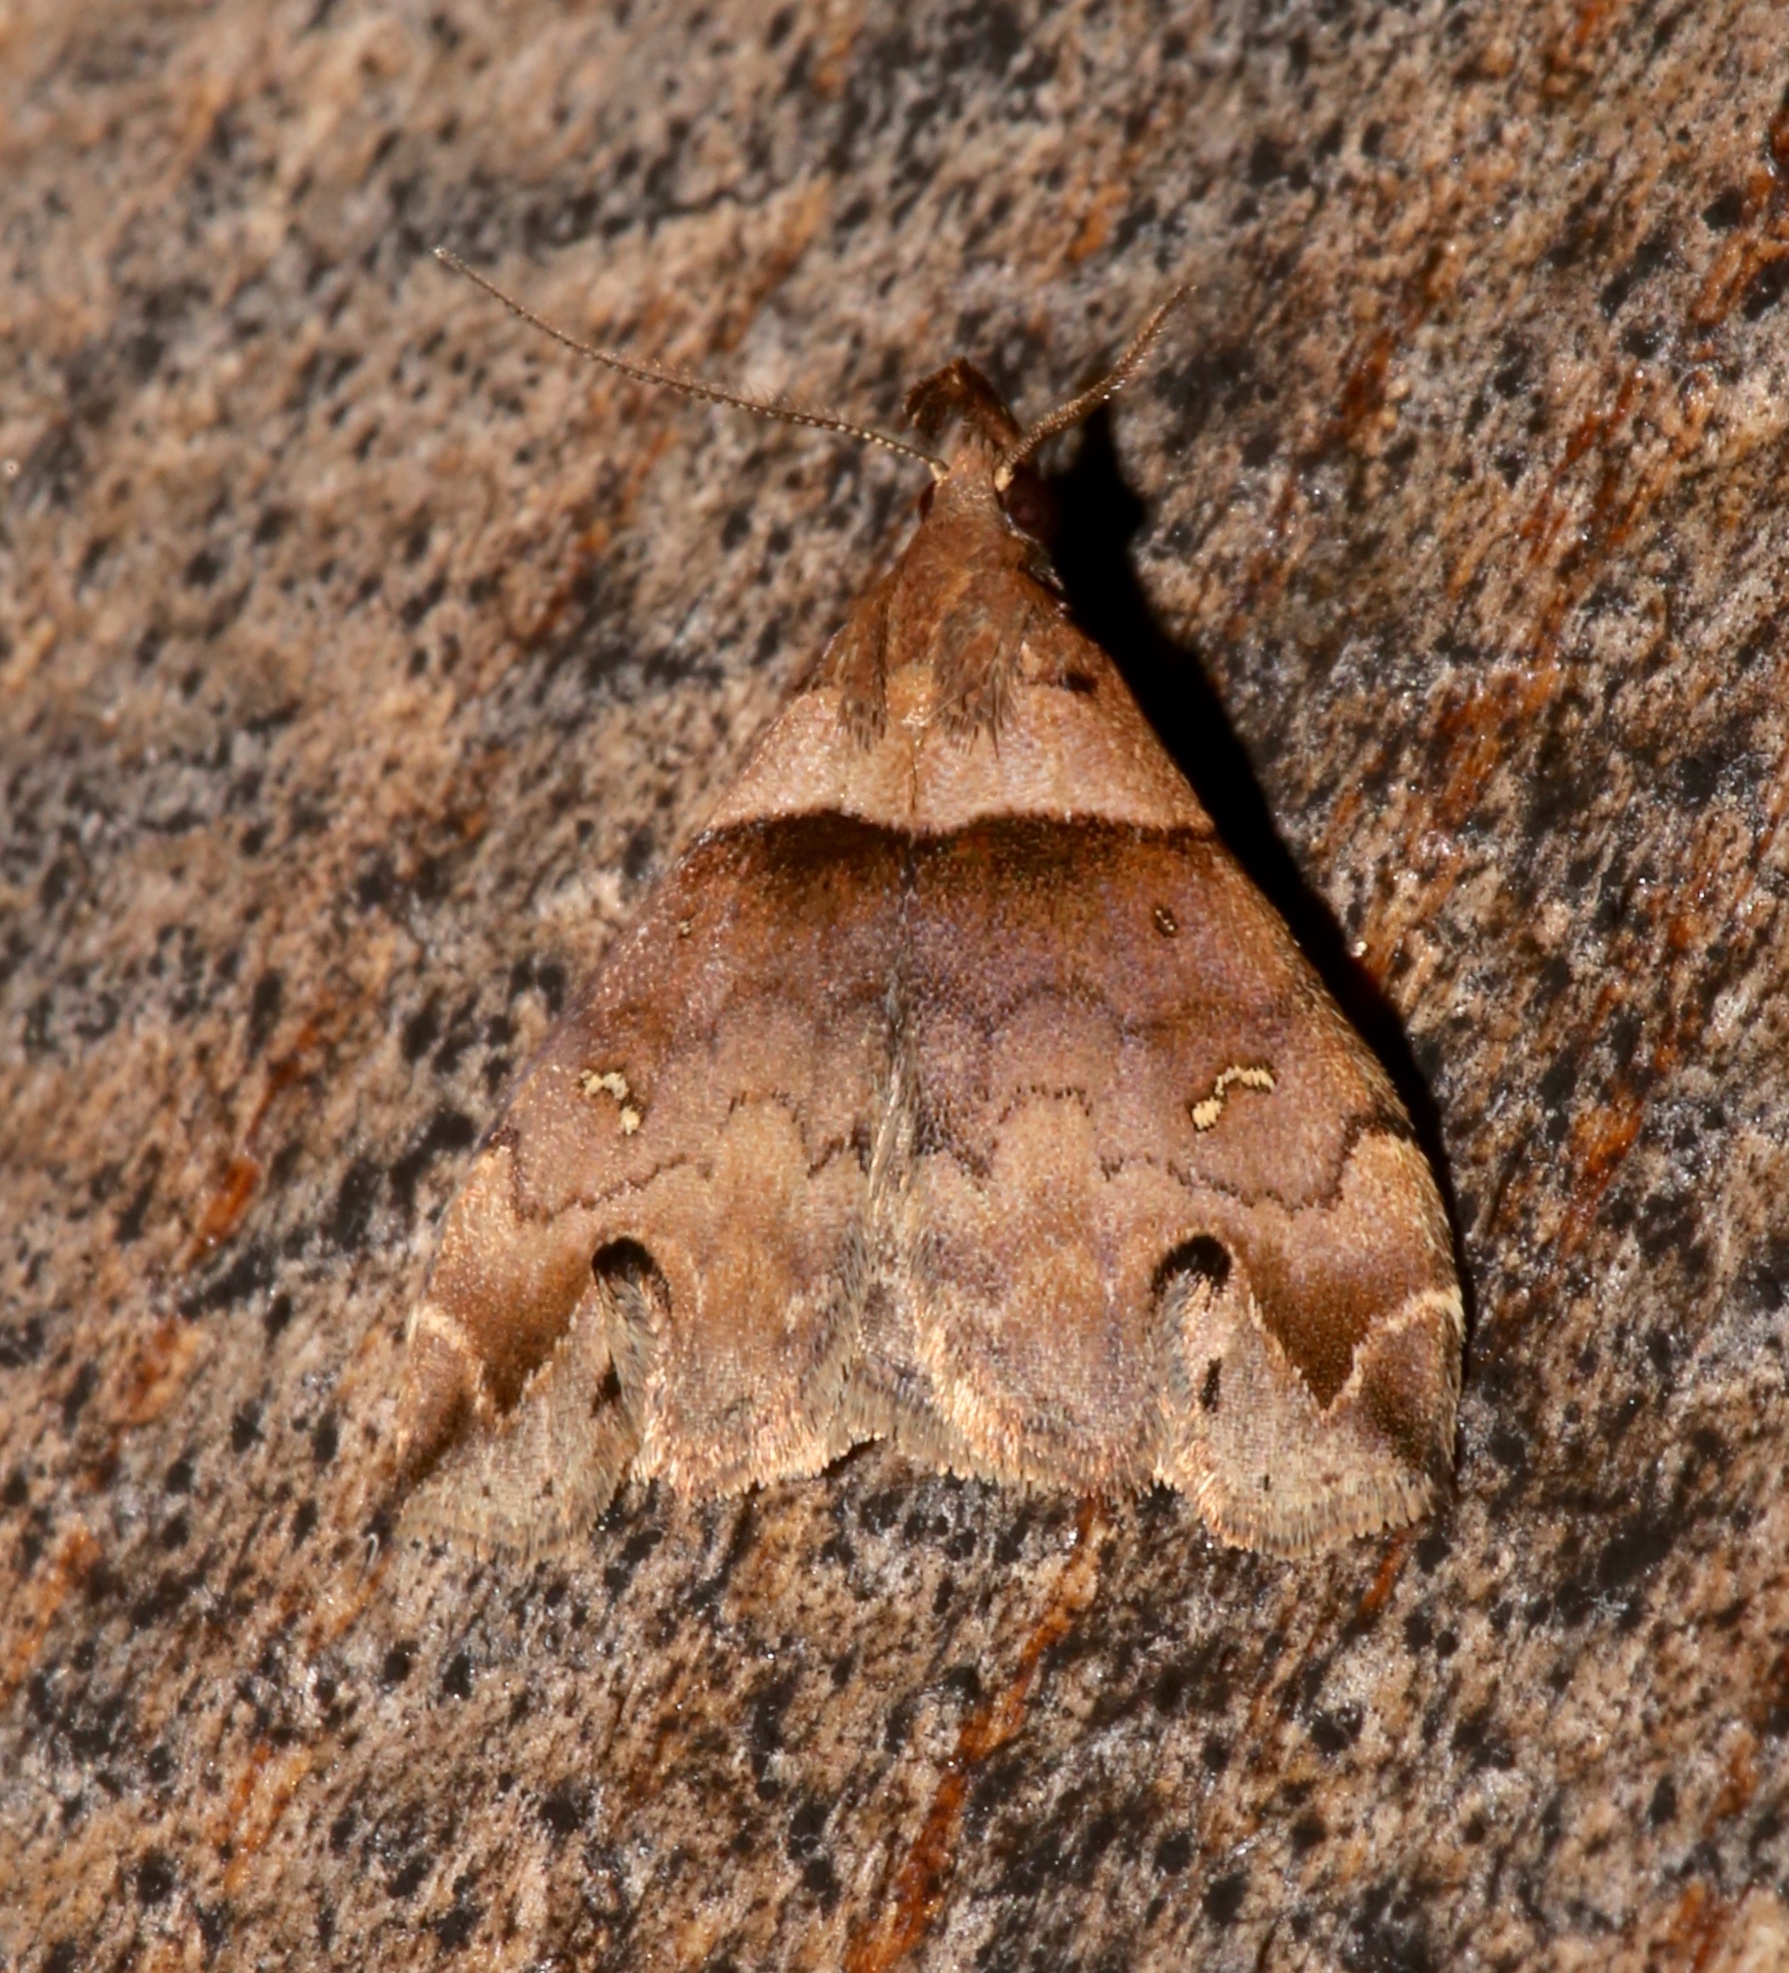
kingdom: Animalia
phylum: Arthropoda
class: Insecta
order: Lepidoptera
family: Erebidae
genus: Lascoria
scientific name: Lascoria ambigualis
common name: Ambiguous moth
